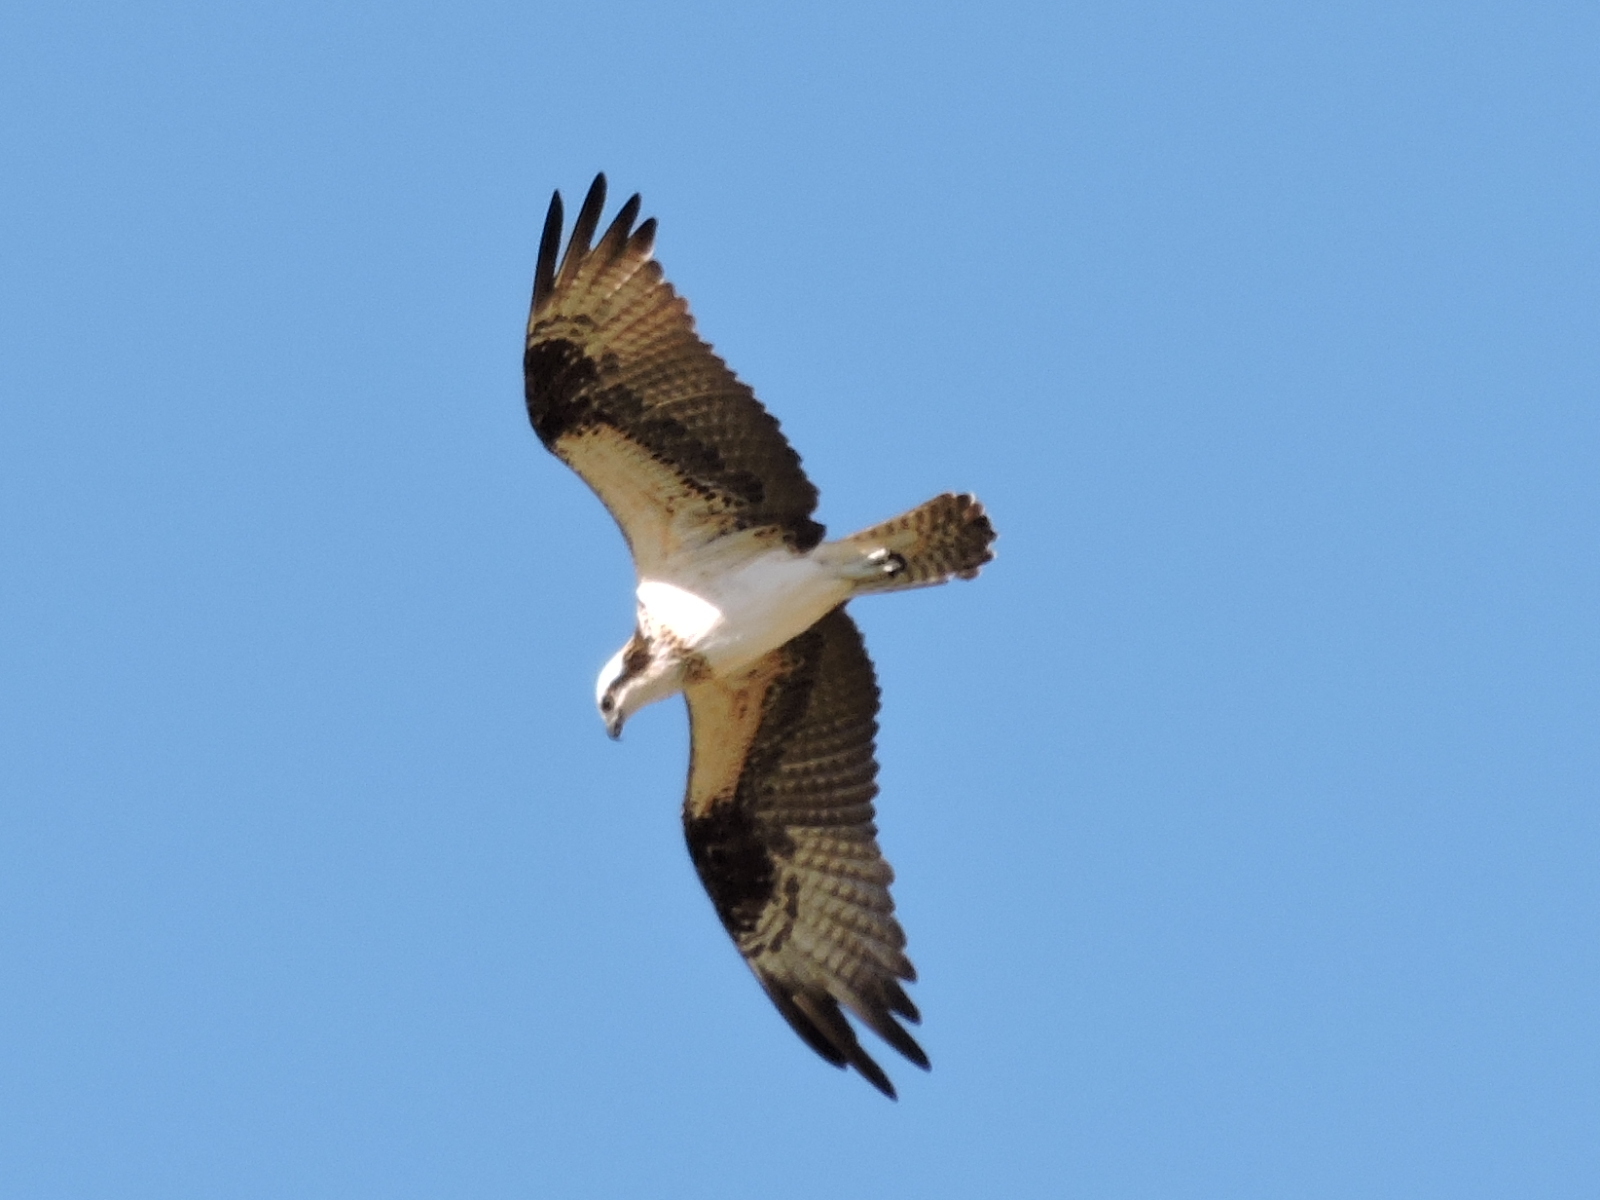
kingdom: Animalia
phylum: Chordata
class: Aves
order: Accipitriformes
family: Pandionidae
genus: Pandion
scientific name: Pandion haliaetus
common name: Osprey
